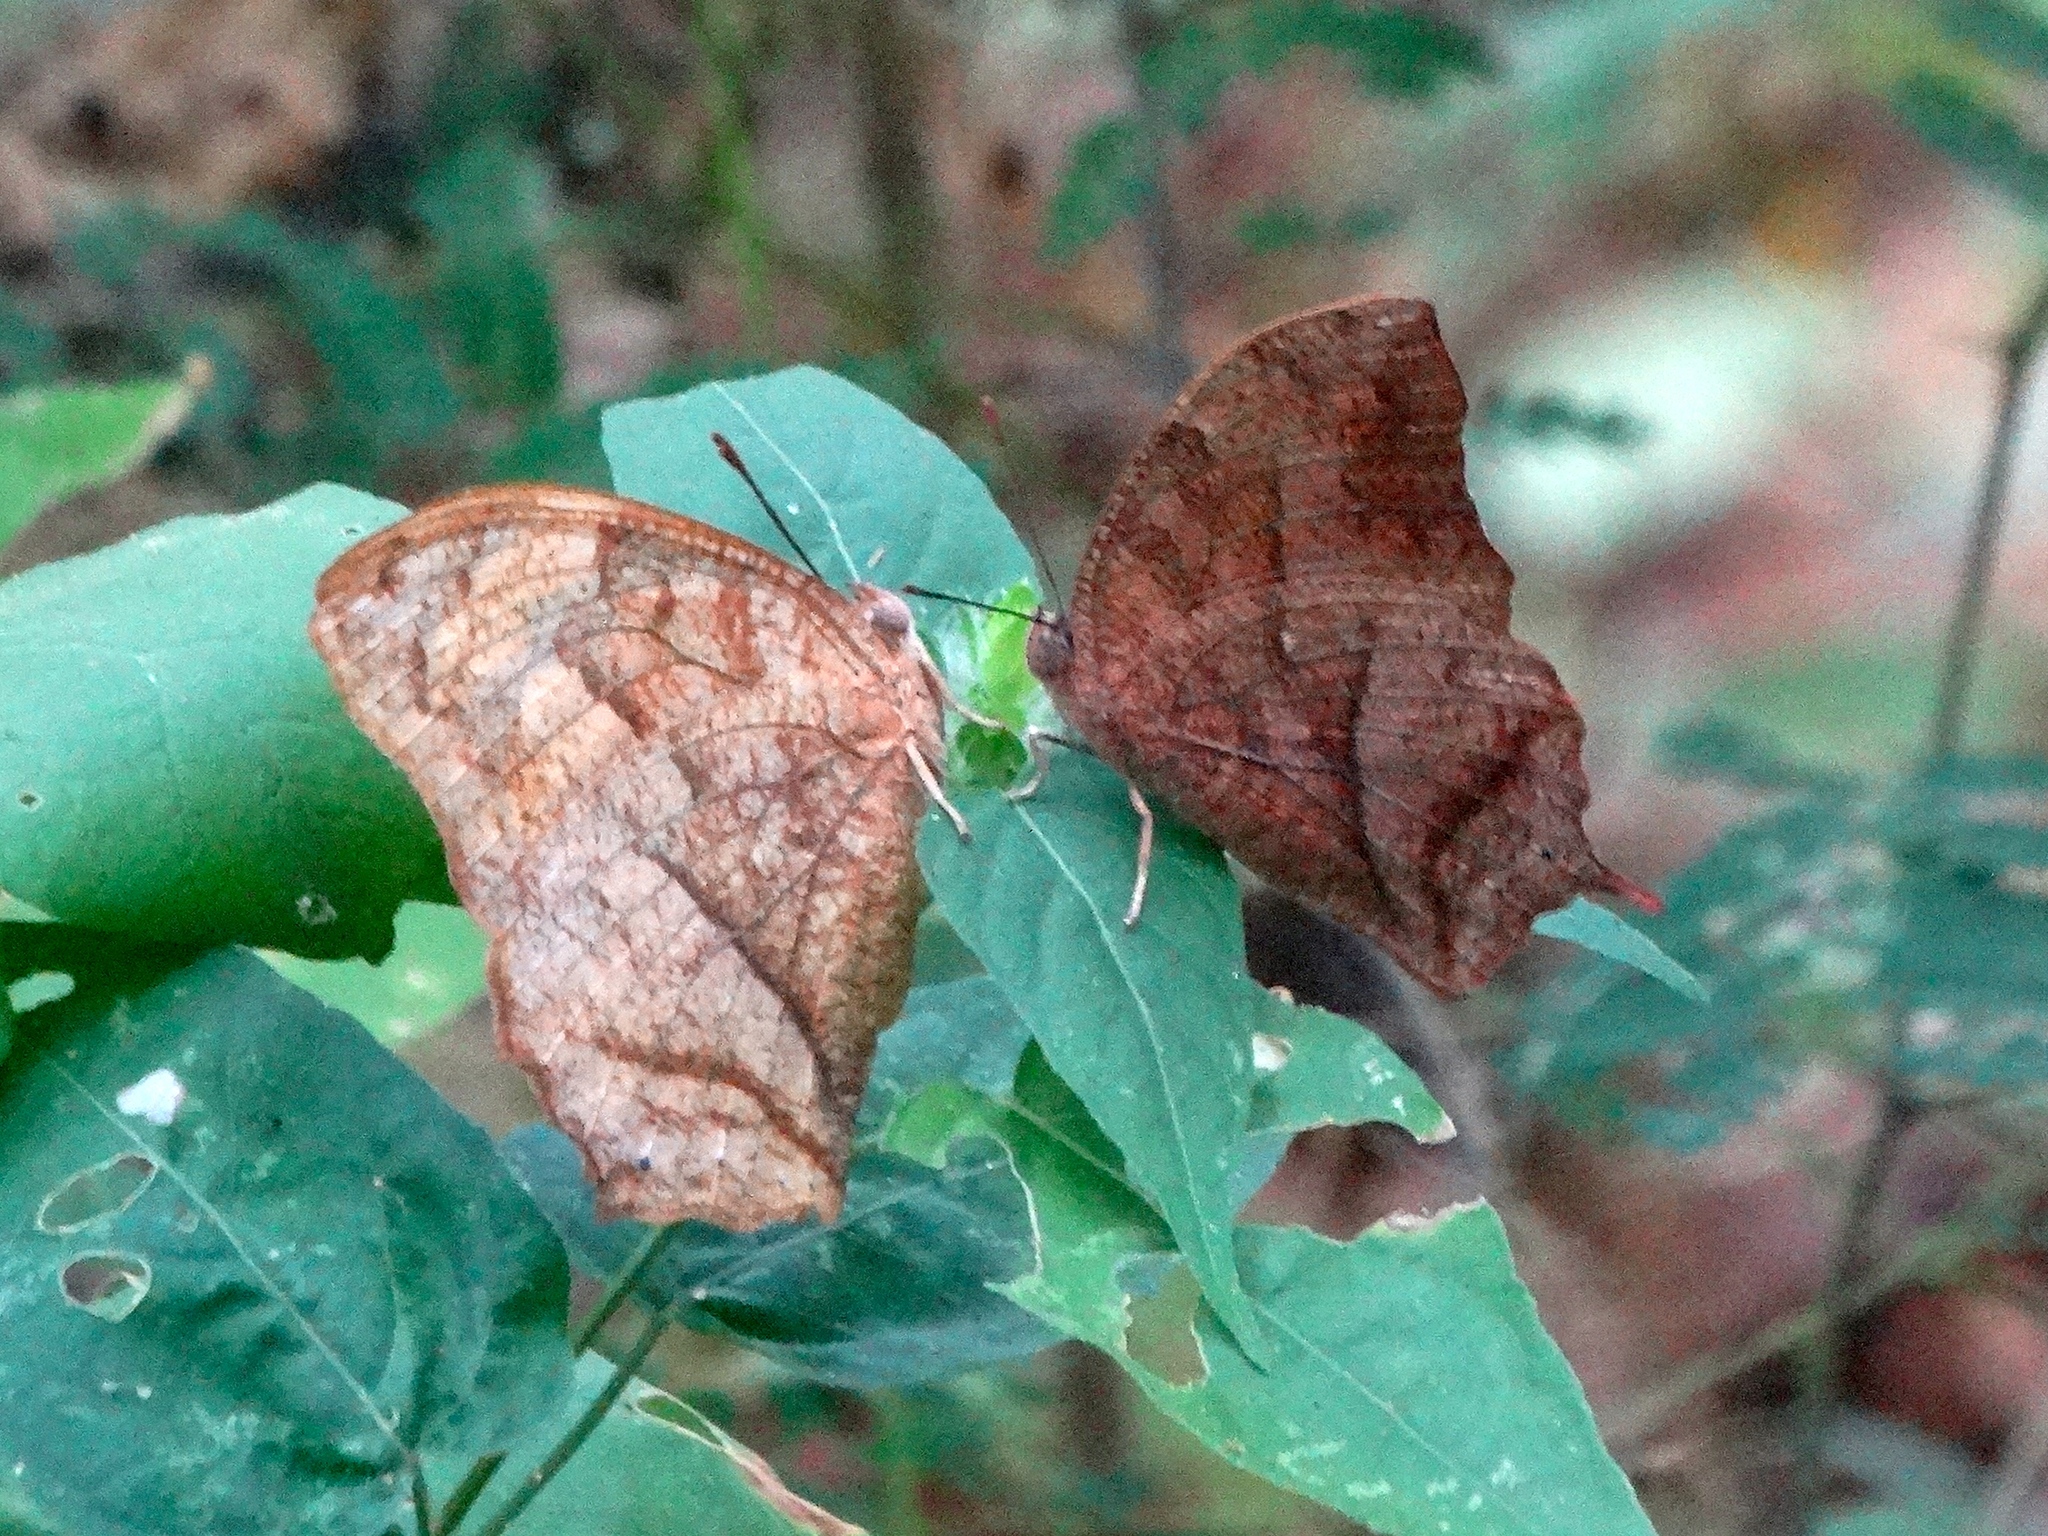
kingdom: Animalia
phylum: Arthropoda
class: Insecta
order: Lepidoptera
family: Nymphalidae
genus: Fountainea
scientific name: Fountainea
